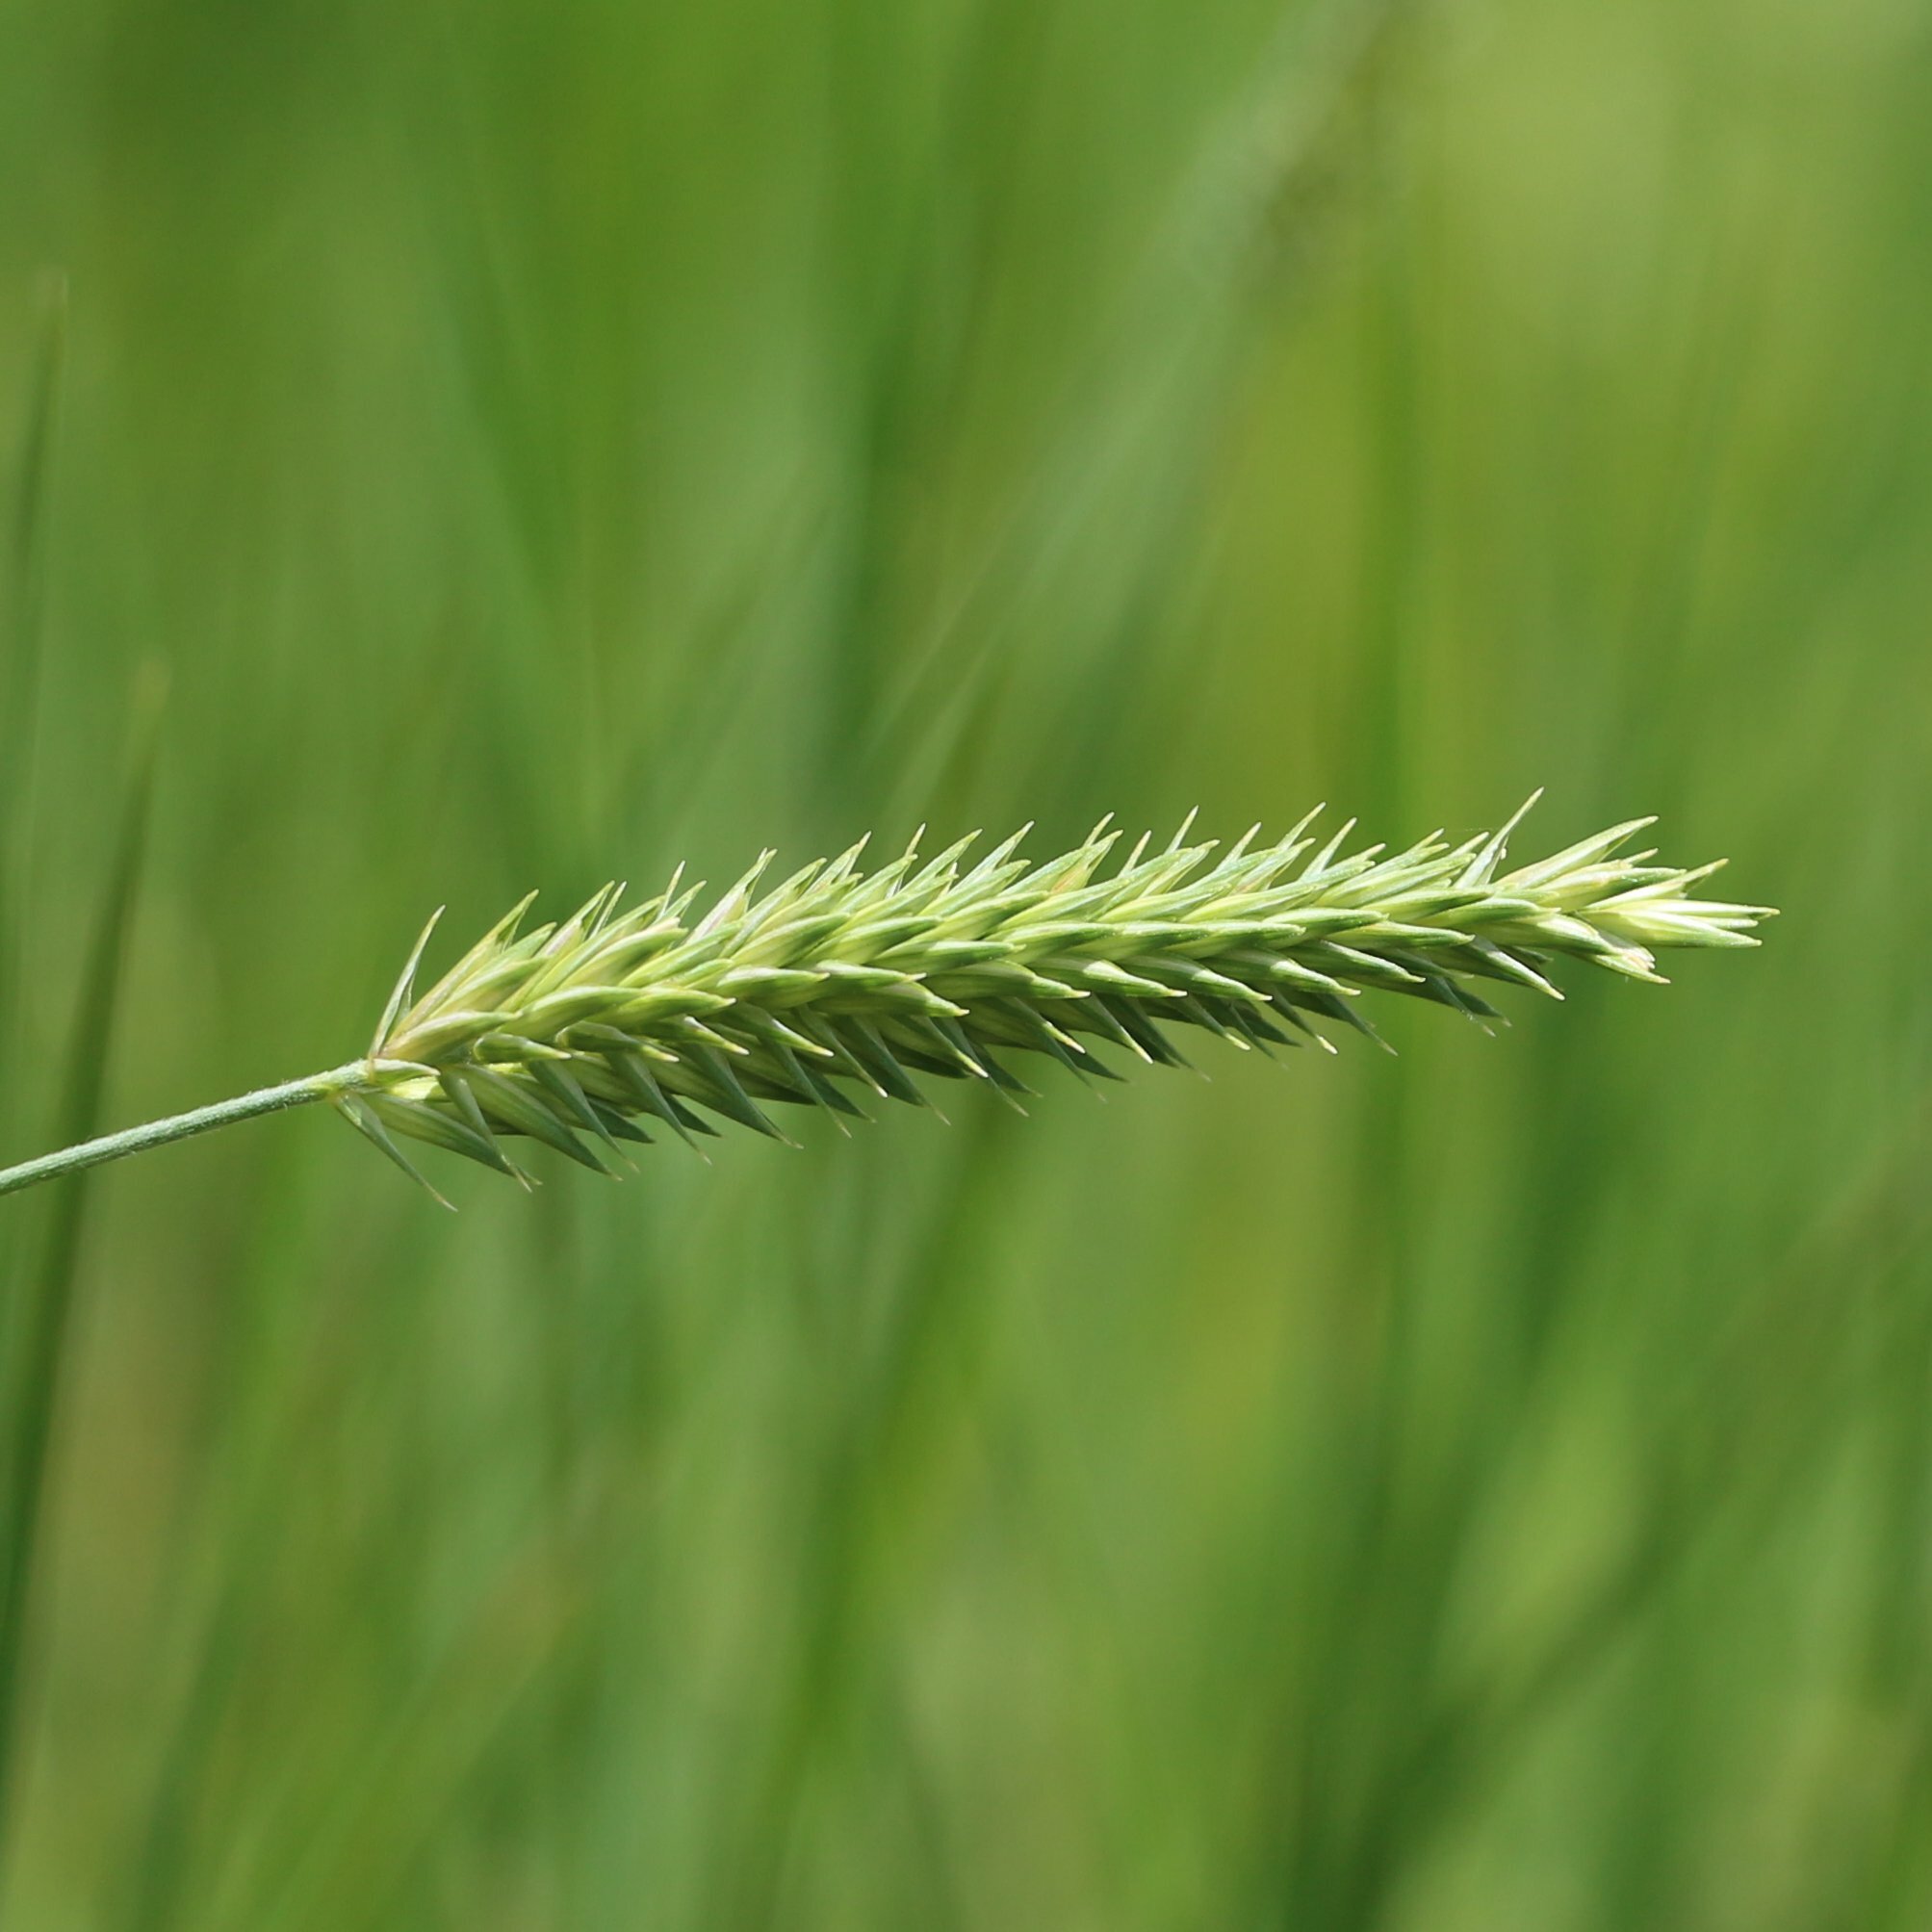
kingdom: Plantae
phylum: Tracheophyta
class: Liliopsida
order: Poales
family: Poaceae
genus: Agropyron
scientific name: Agropyron cristatum
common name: Crested wheatgrass
